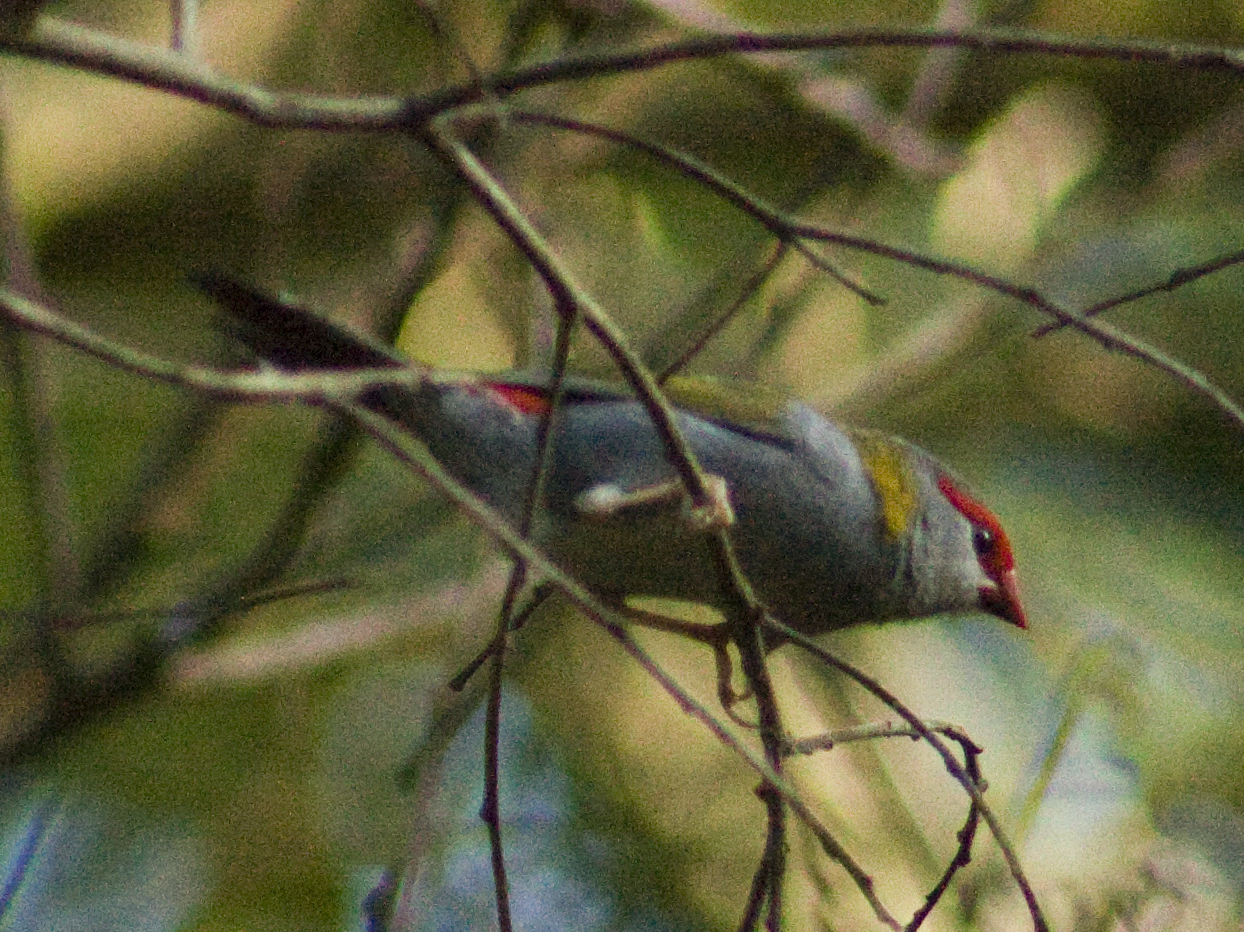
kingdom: Animalia
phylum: Chordata
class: Aves
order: Passeriformes
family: Estrildidae
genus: Neochmia
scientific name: Neochmia temporalis
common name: Red-browed finch
